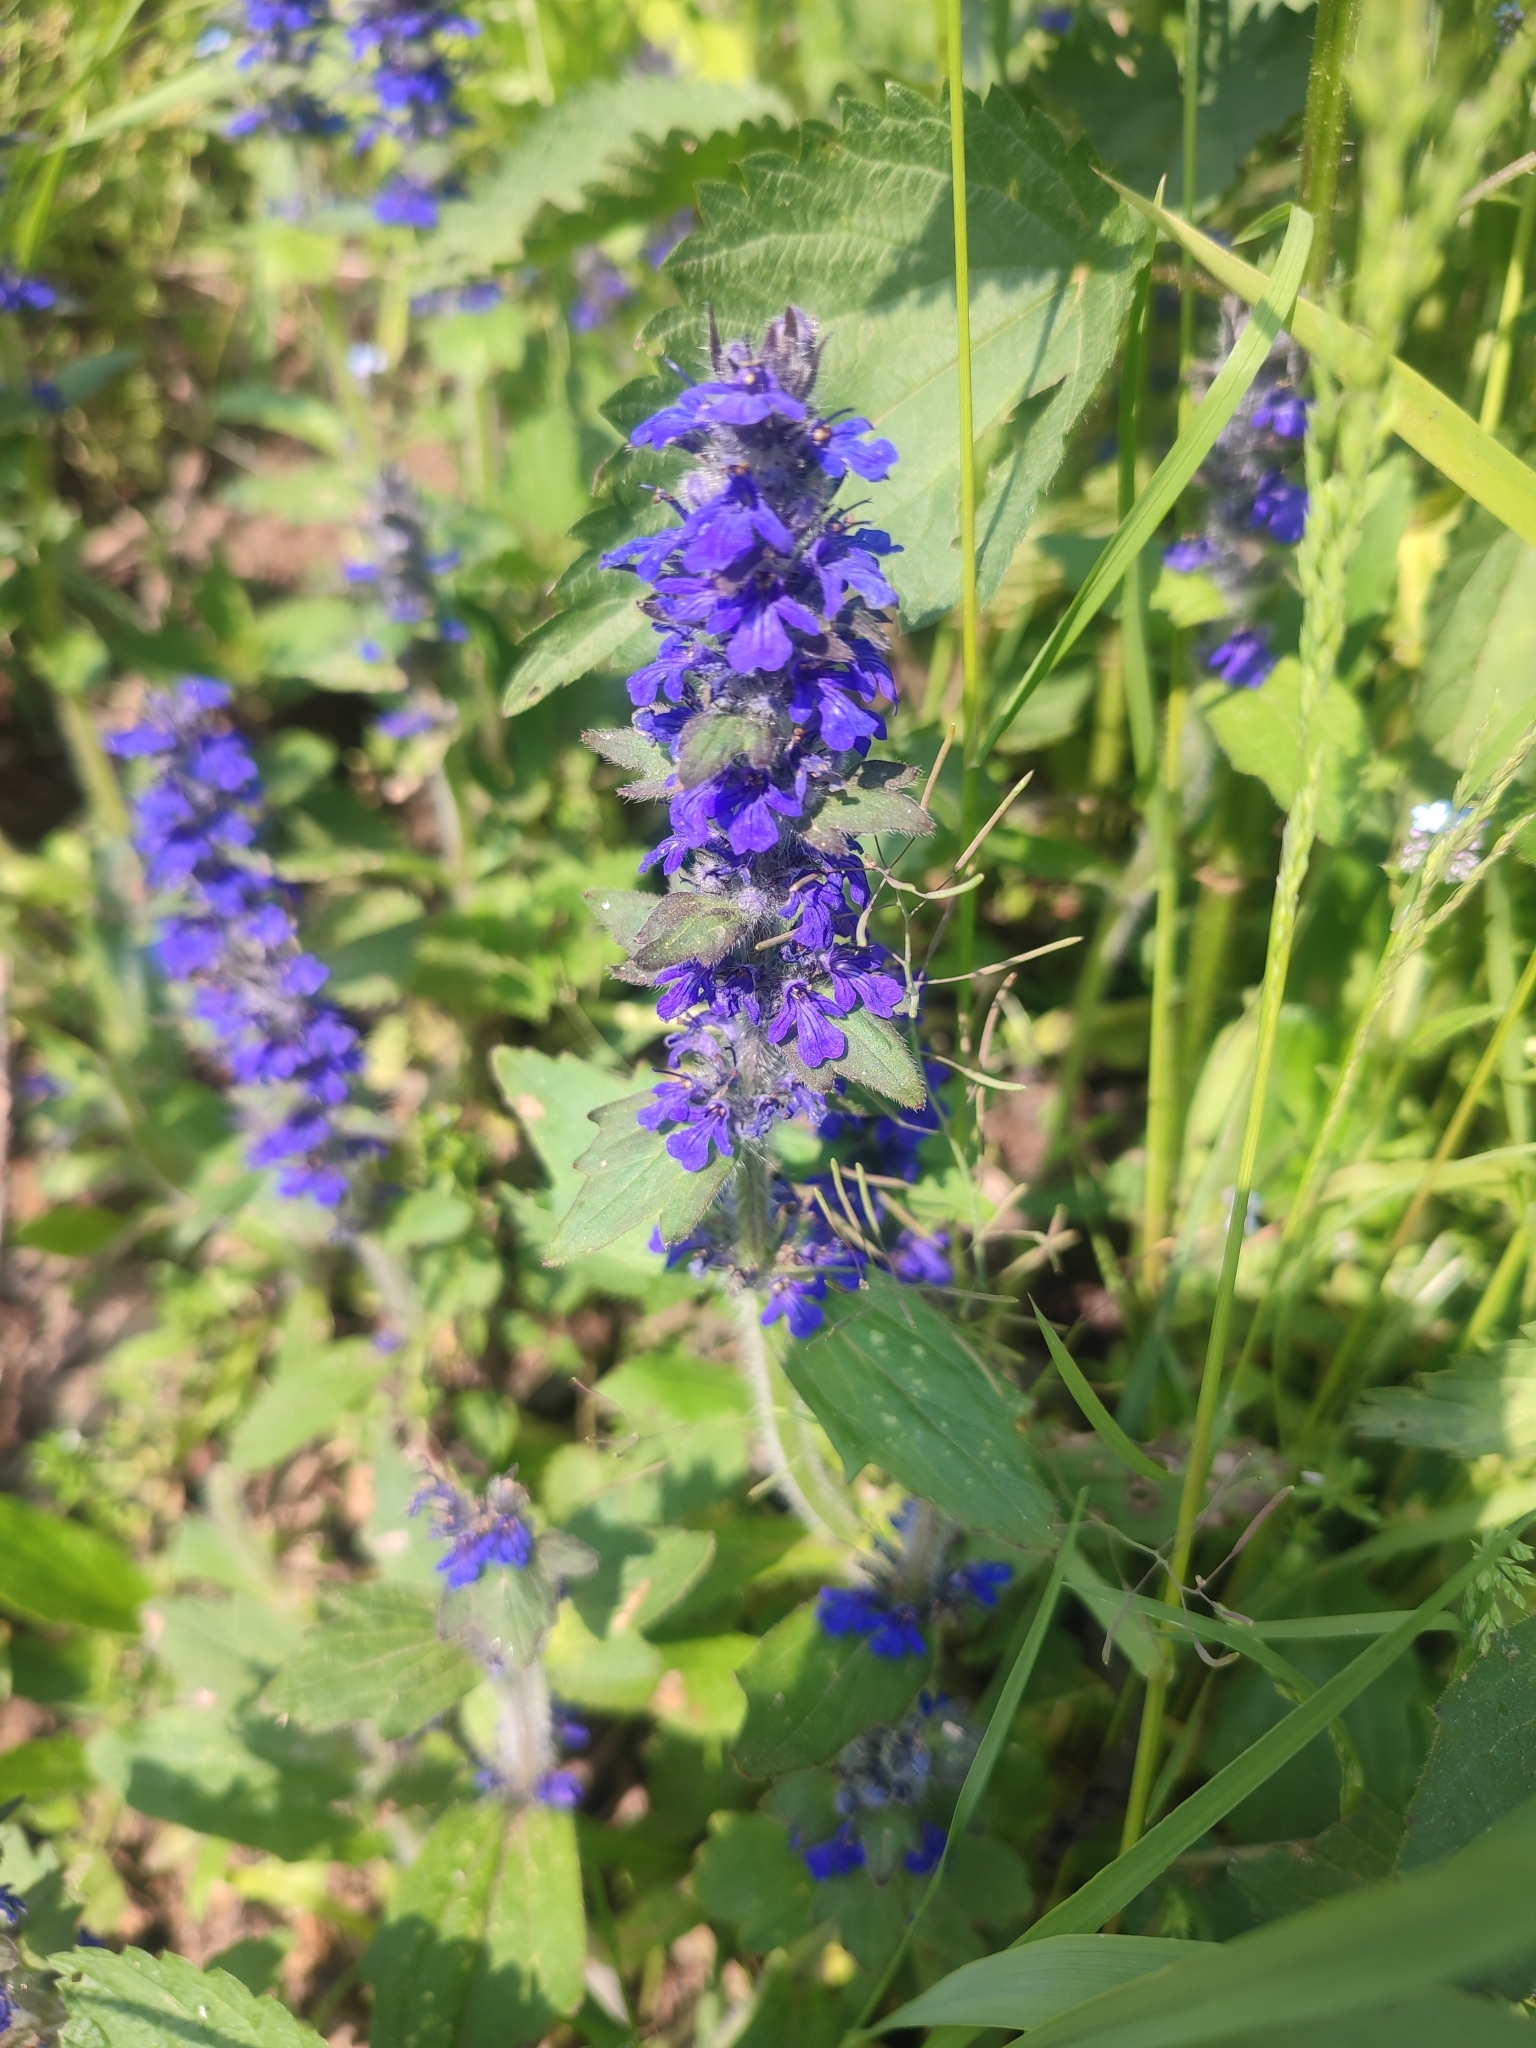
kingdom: Plantae
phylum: Tracheophyta
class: Magnoliopsida
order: Lamiales
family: Lamiaceae
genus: Ajuga
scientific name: Ajuga genevensis
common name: Blue bugle
